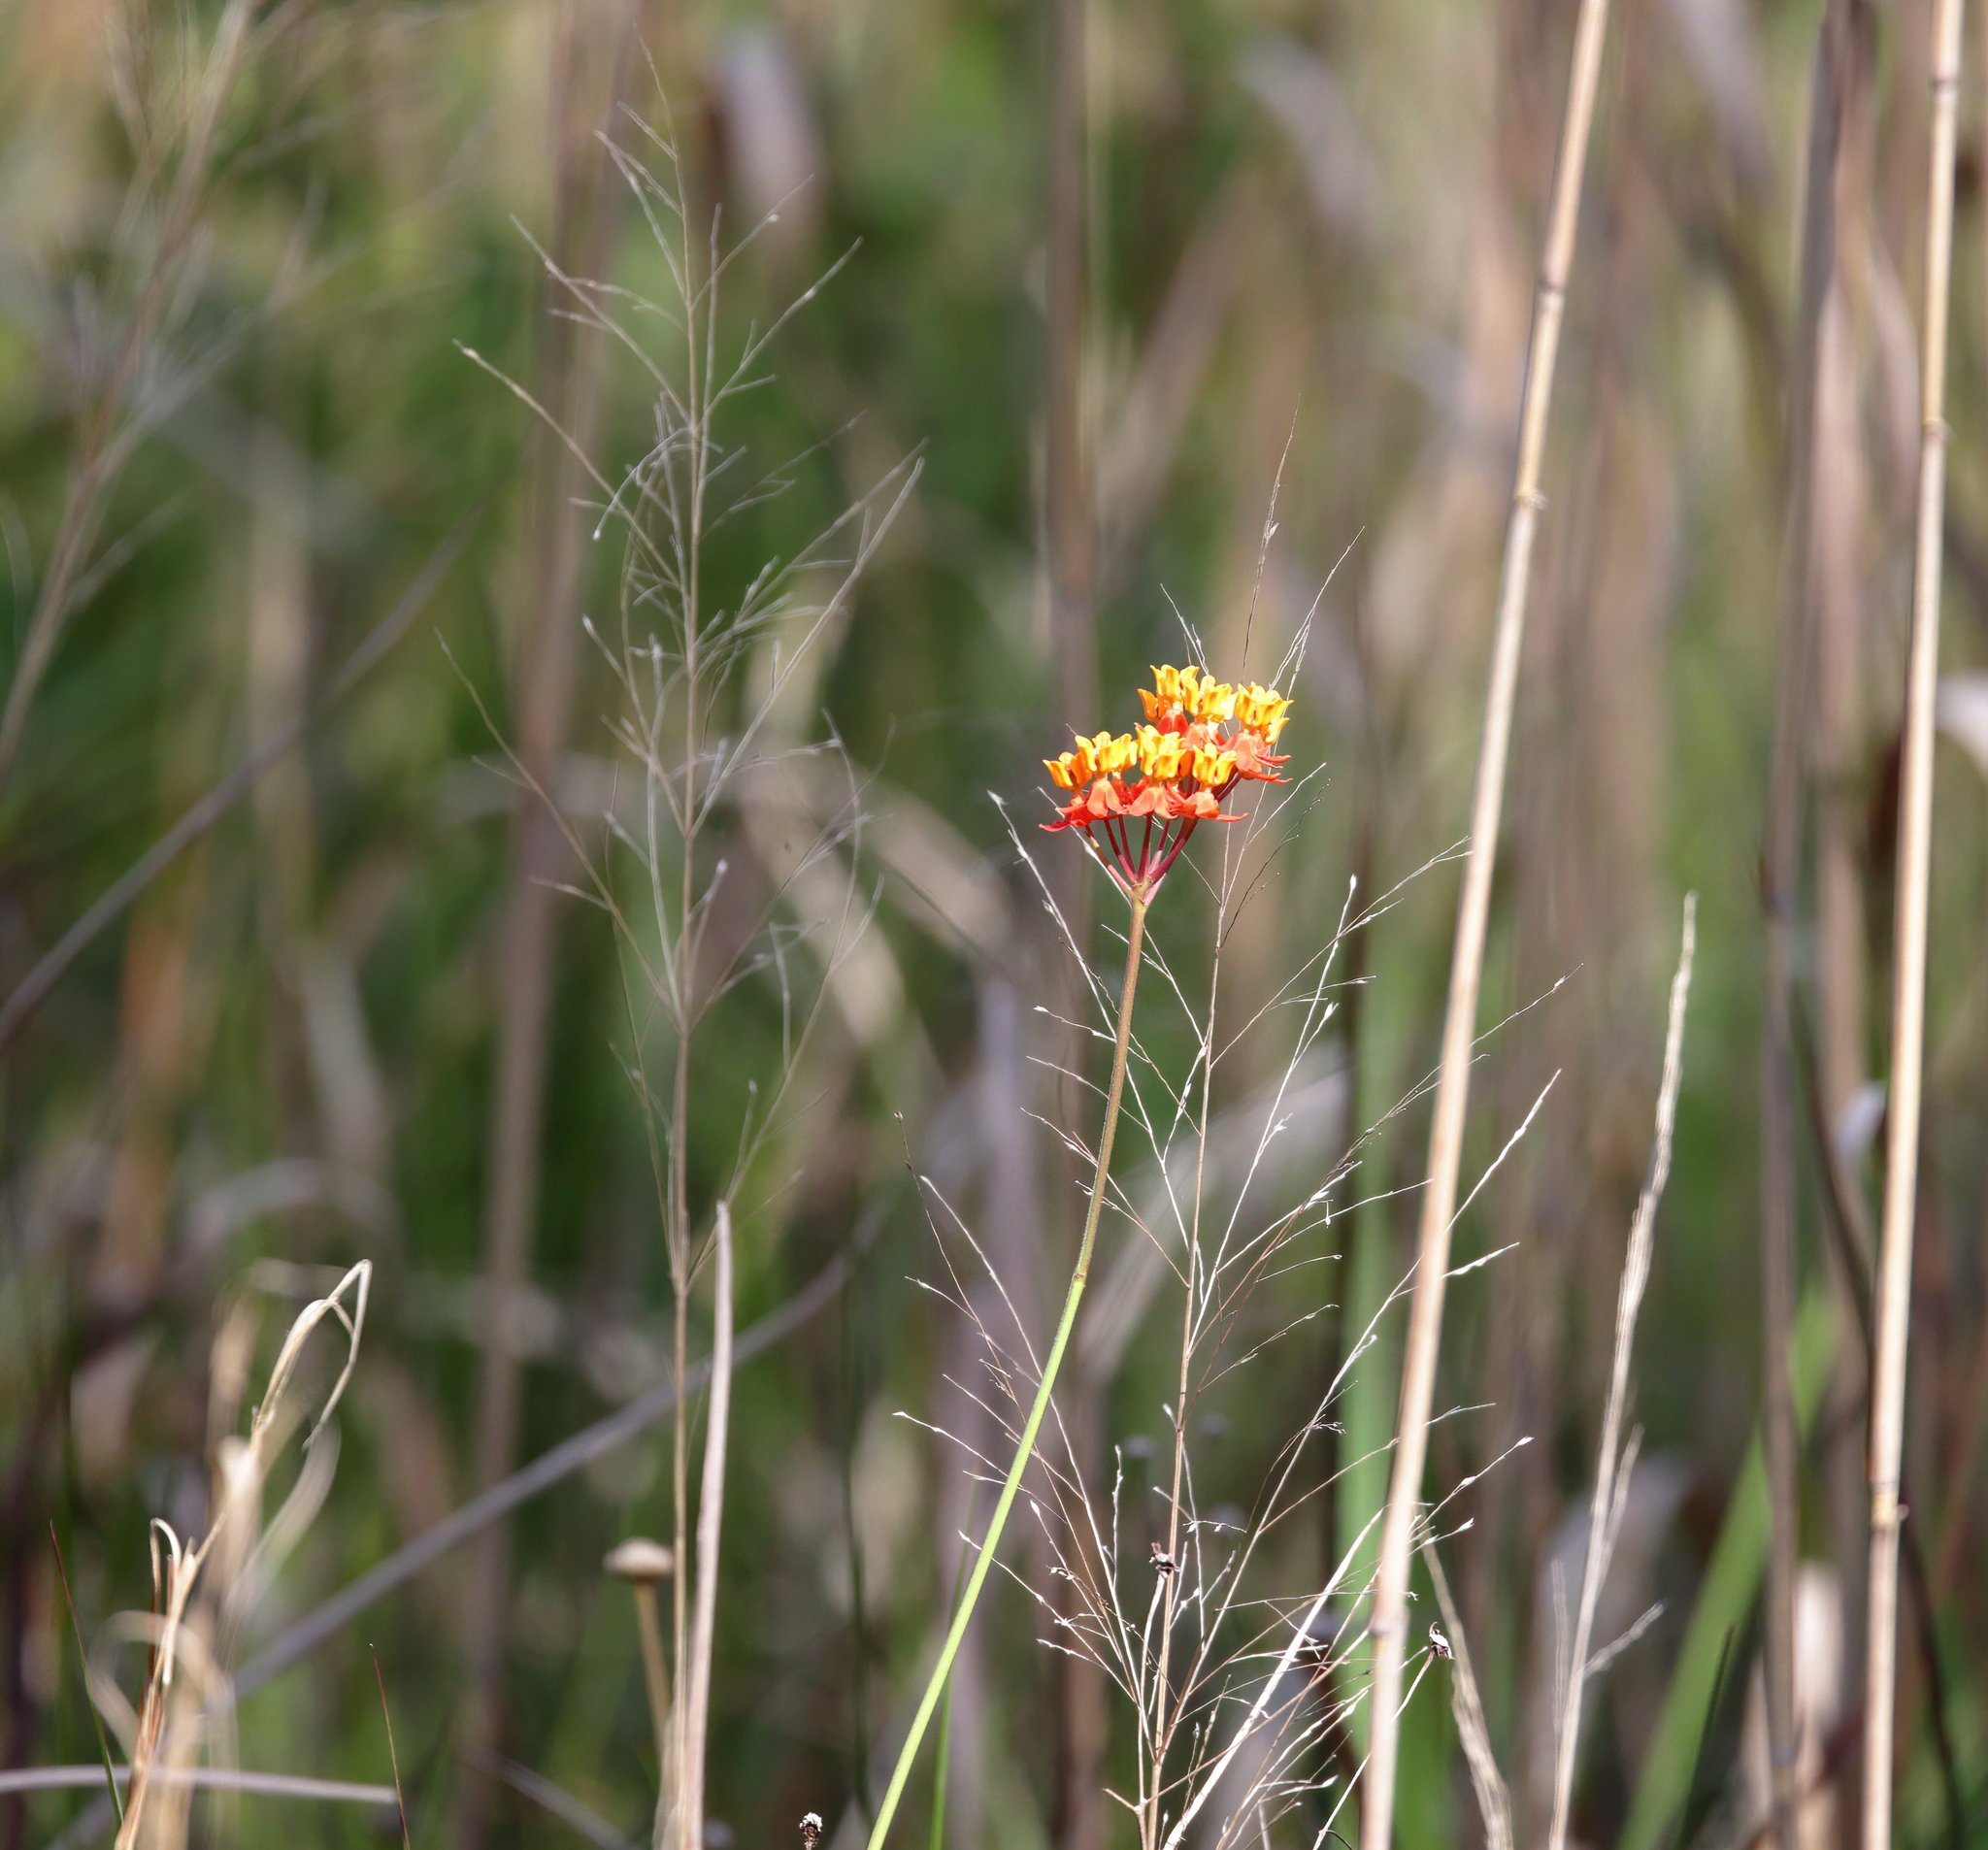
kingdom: Plantae
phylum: Tracheophyta
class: Magnoliopsida
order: Gentianales
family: Apocynaceae
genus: Asclepias
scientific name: Asclepias lanceolata
